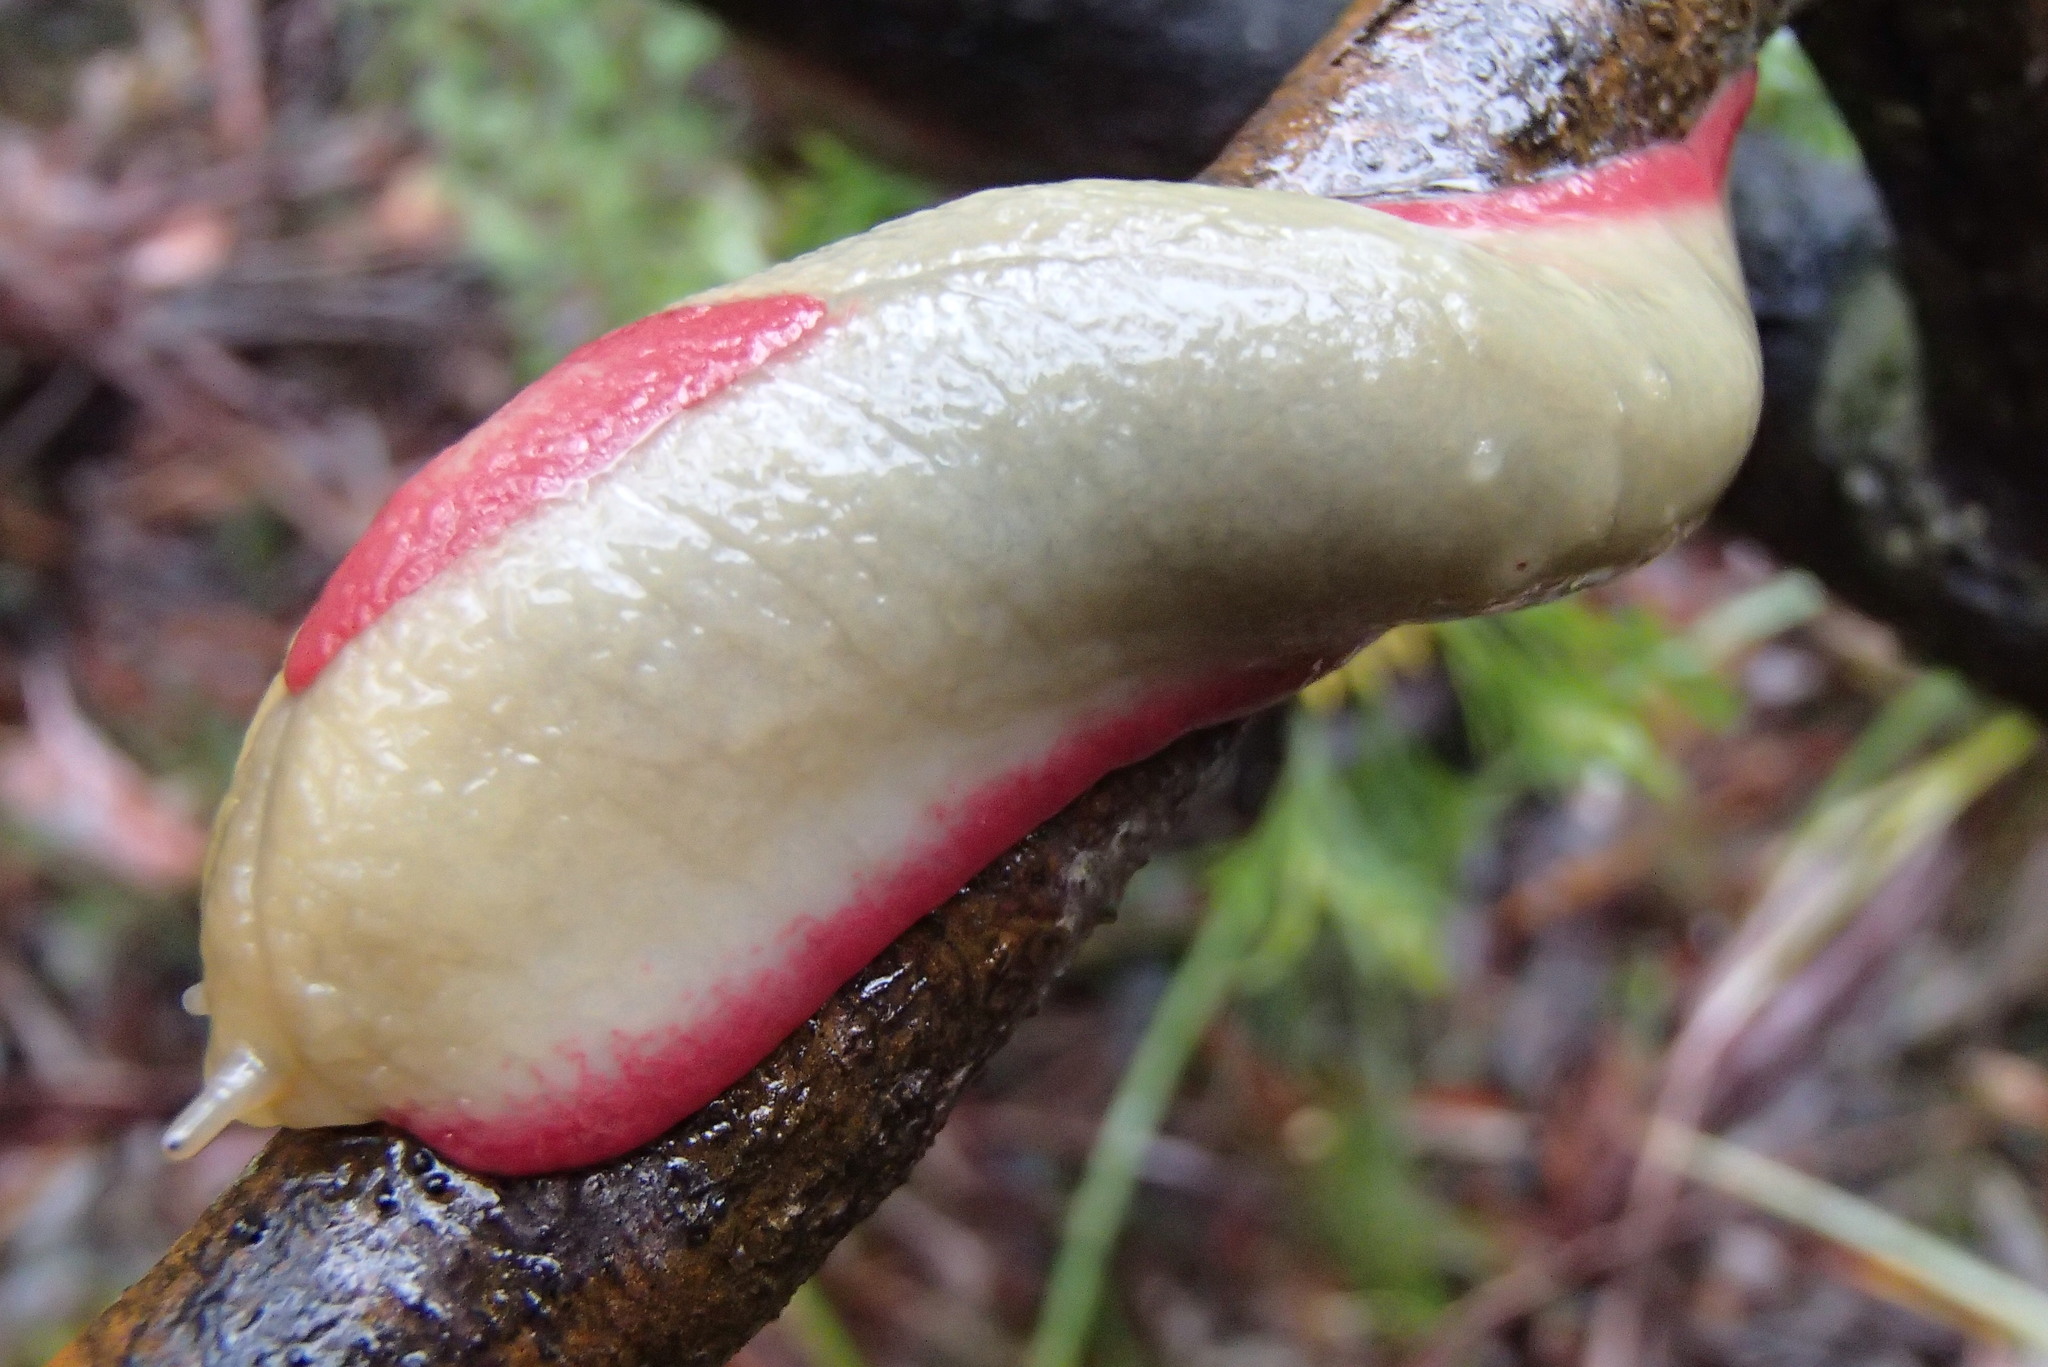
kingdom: Animalia
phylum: Mollusca
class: Gastropoda
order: Stylommatophora
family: Athoracophoridae
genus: Triboniophorus
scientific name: Triboniophorus graeffei
